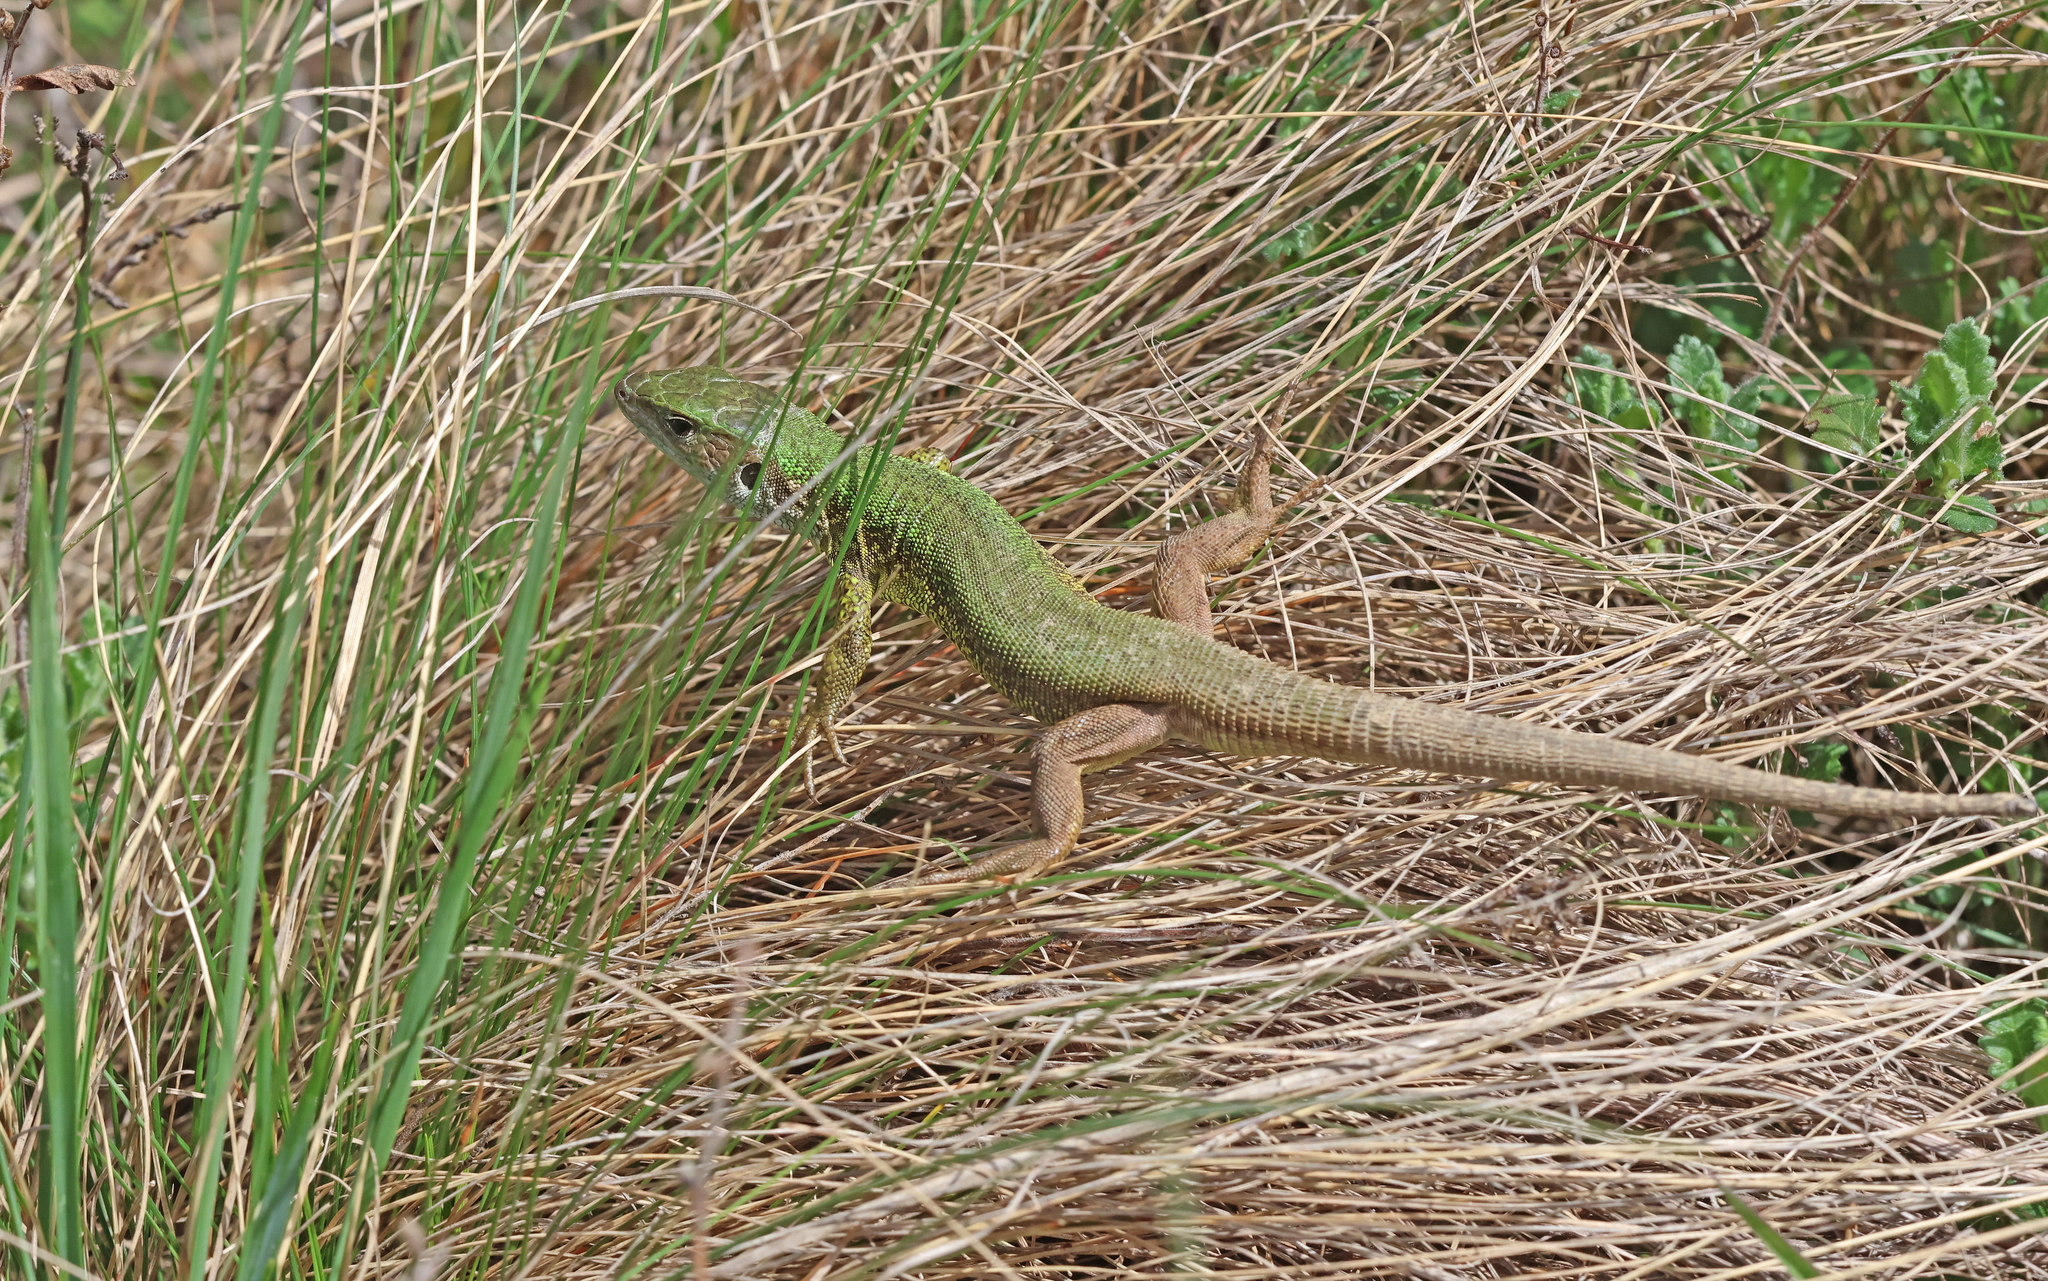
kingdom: Animalia
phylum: Chordata
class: Squamata
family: Lacertidae
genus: Lacerta
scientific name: Lacerta viridis
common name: European green lizard
